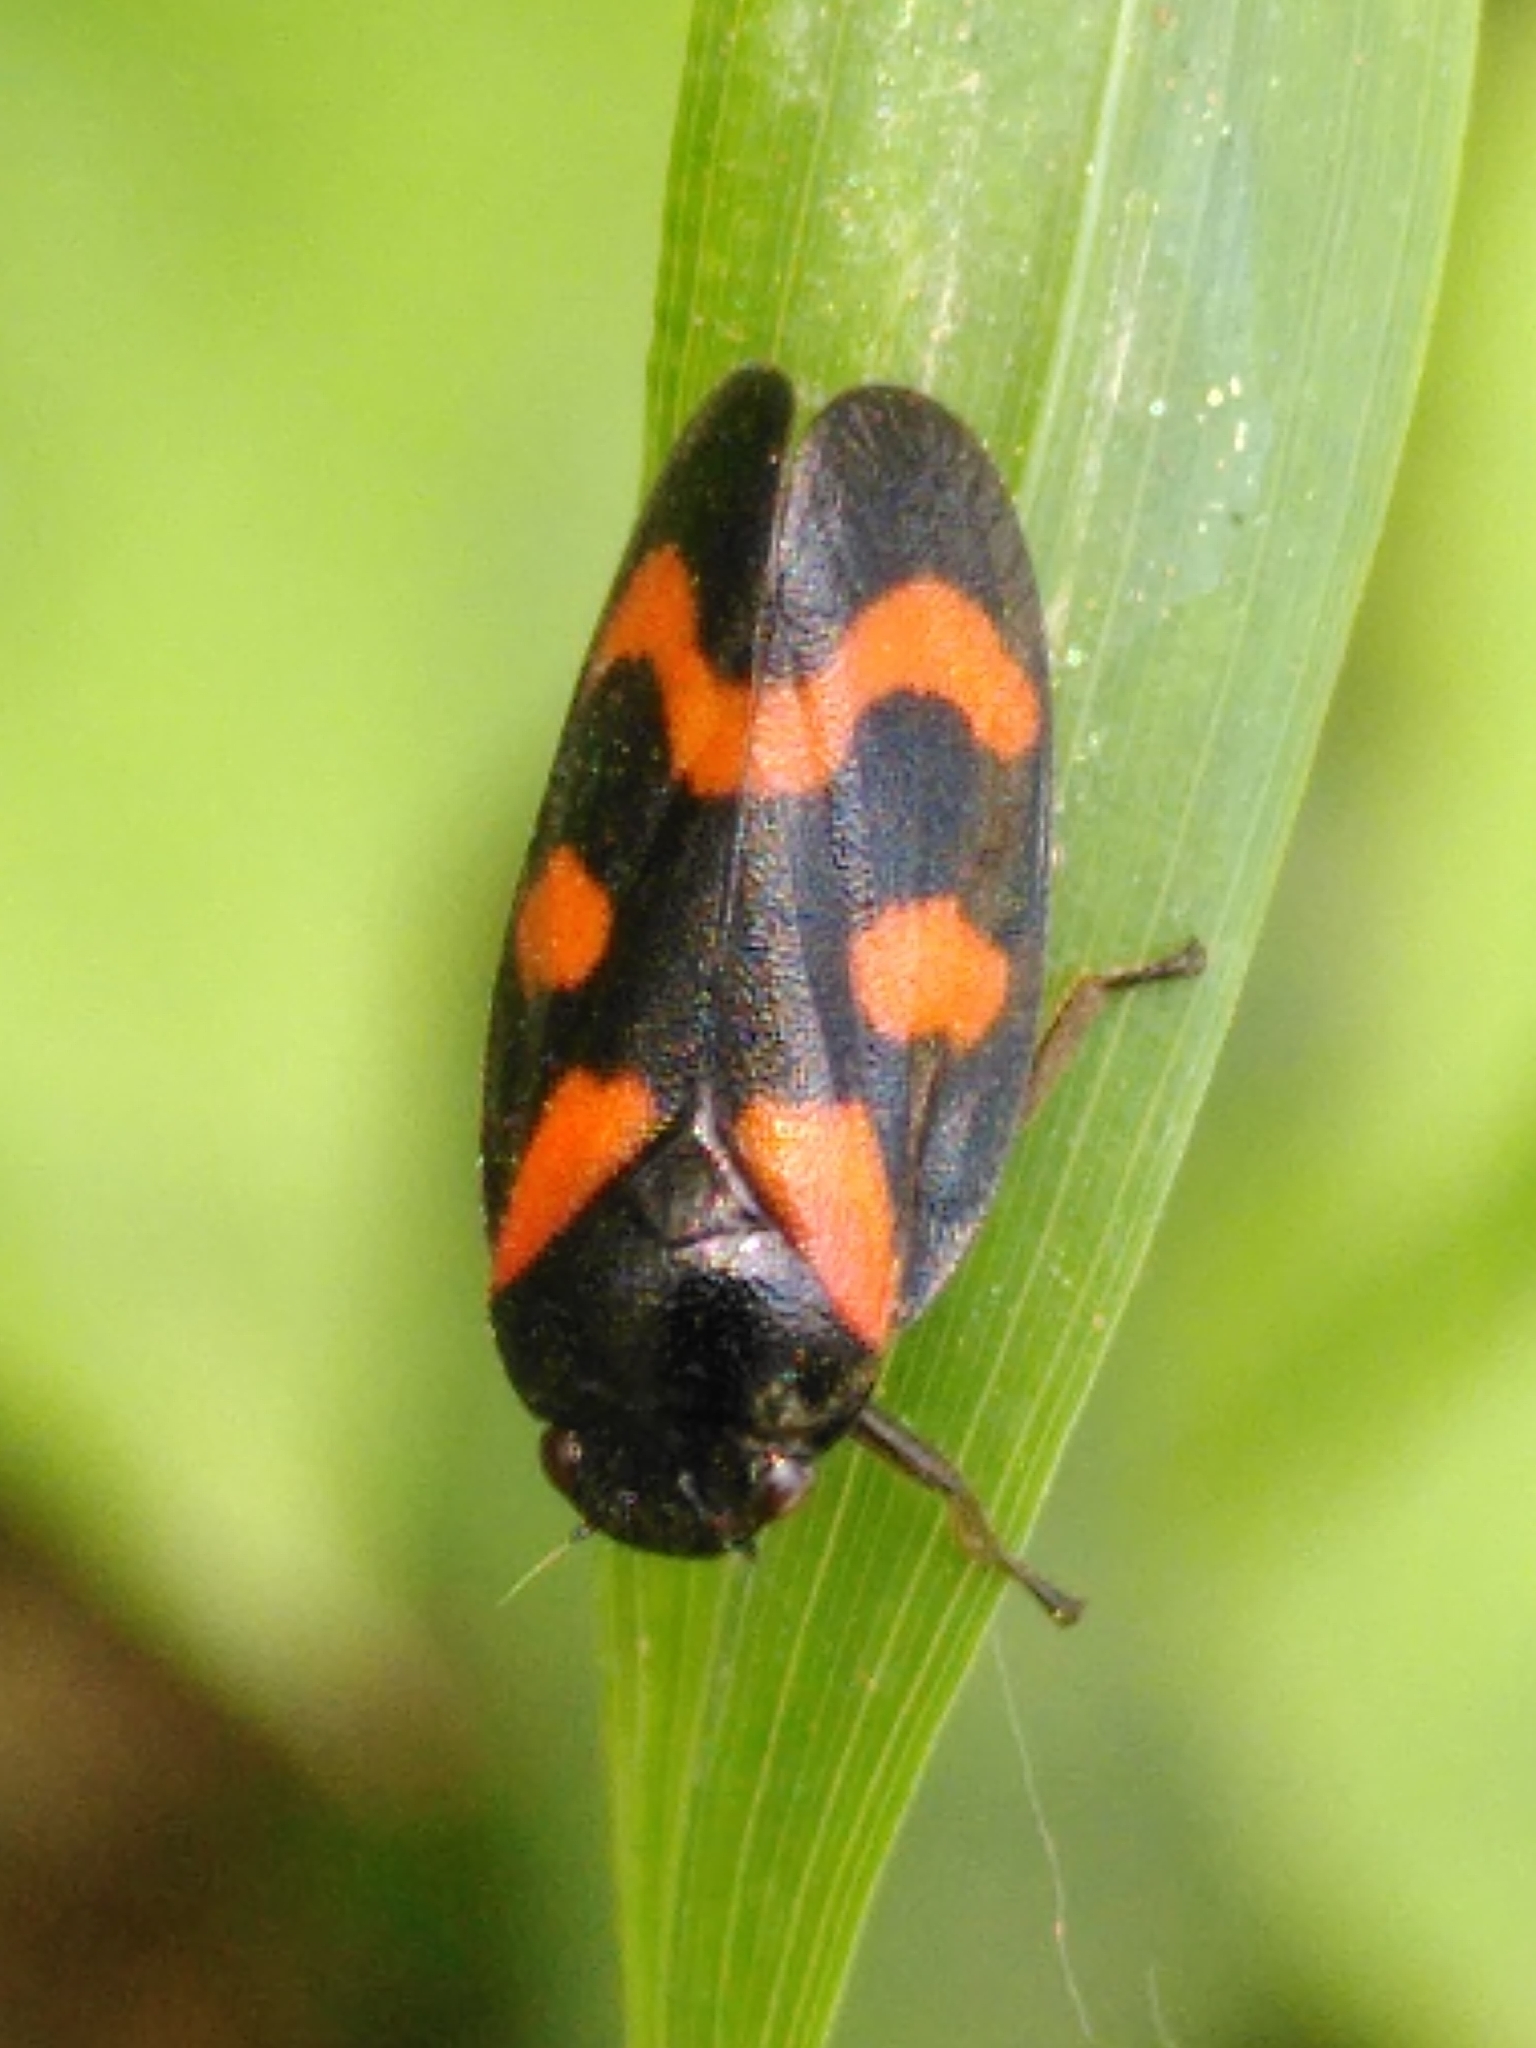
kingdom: Animalia
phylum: Arthropoda
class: Insecta
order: Hemiptera
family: Cercopidae
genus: Cercopis
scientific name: Cercopis vulnerata
